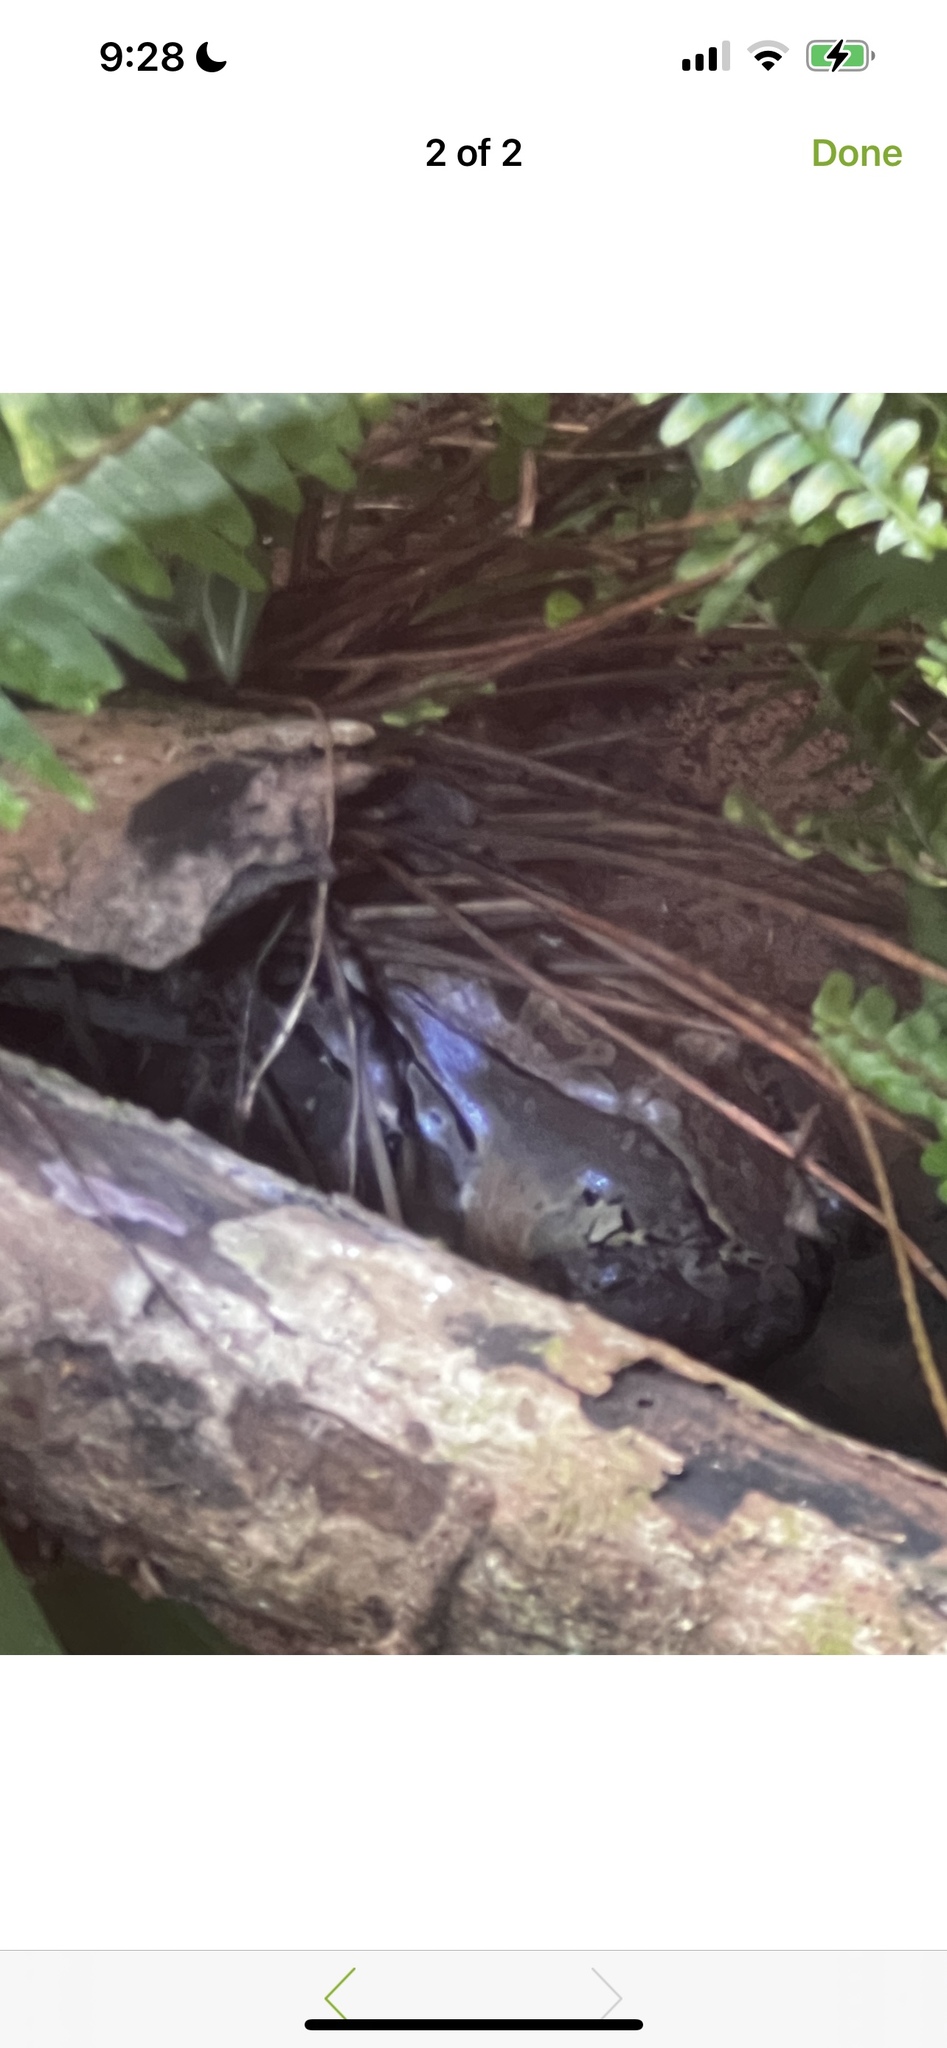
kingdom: Animalia
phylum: Chordata
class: Amphibia
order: Anura
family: Leptodactylidae
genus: Leptodactylus
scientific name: Leptodactylus savagei
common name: Savage's thin-toed frog
